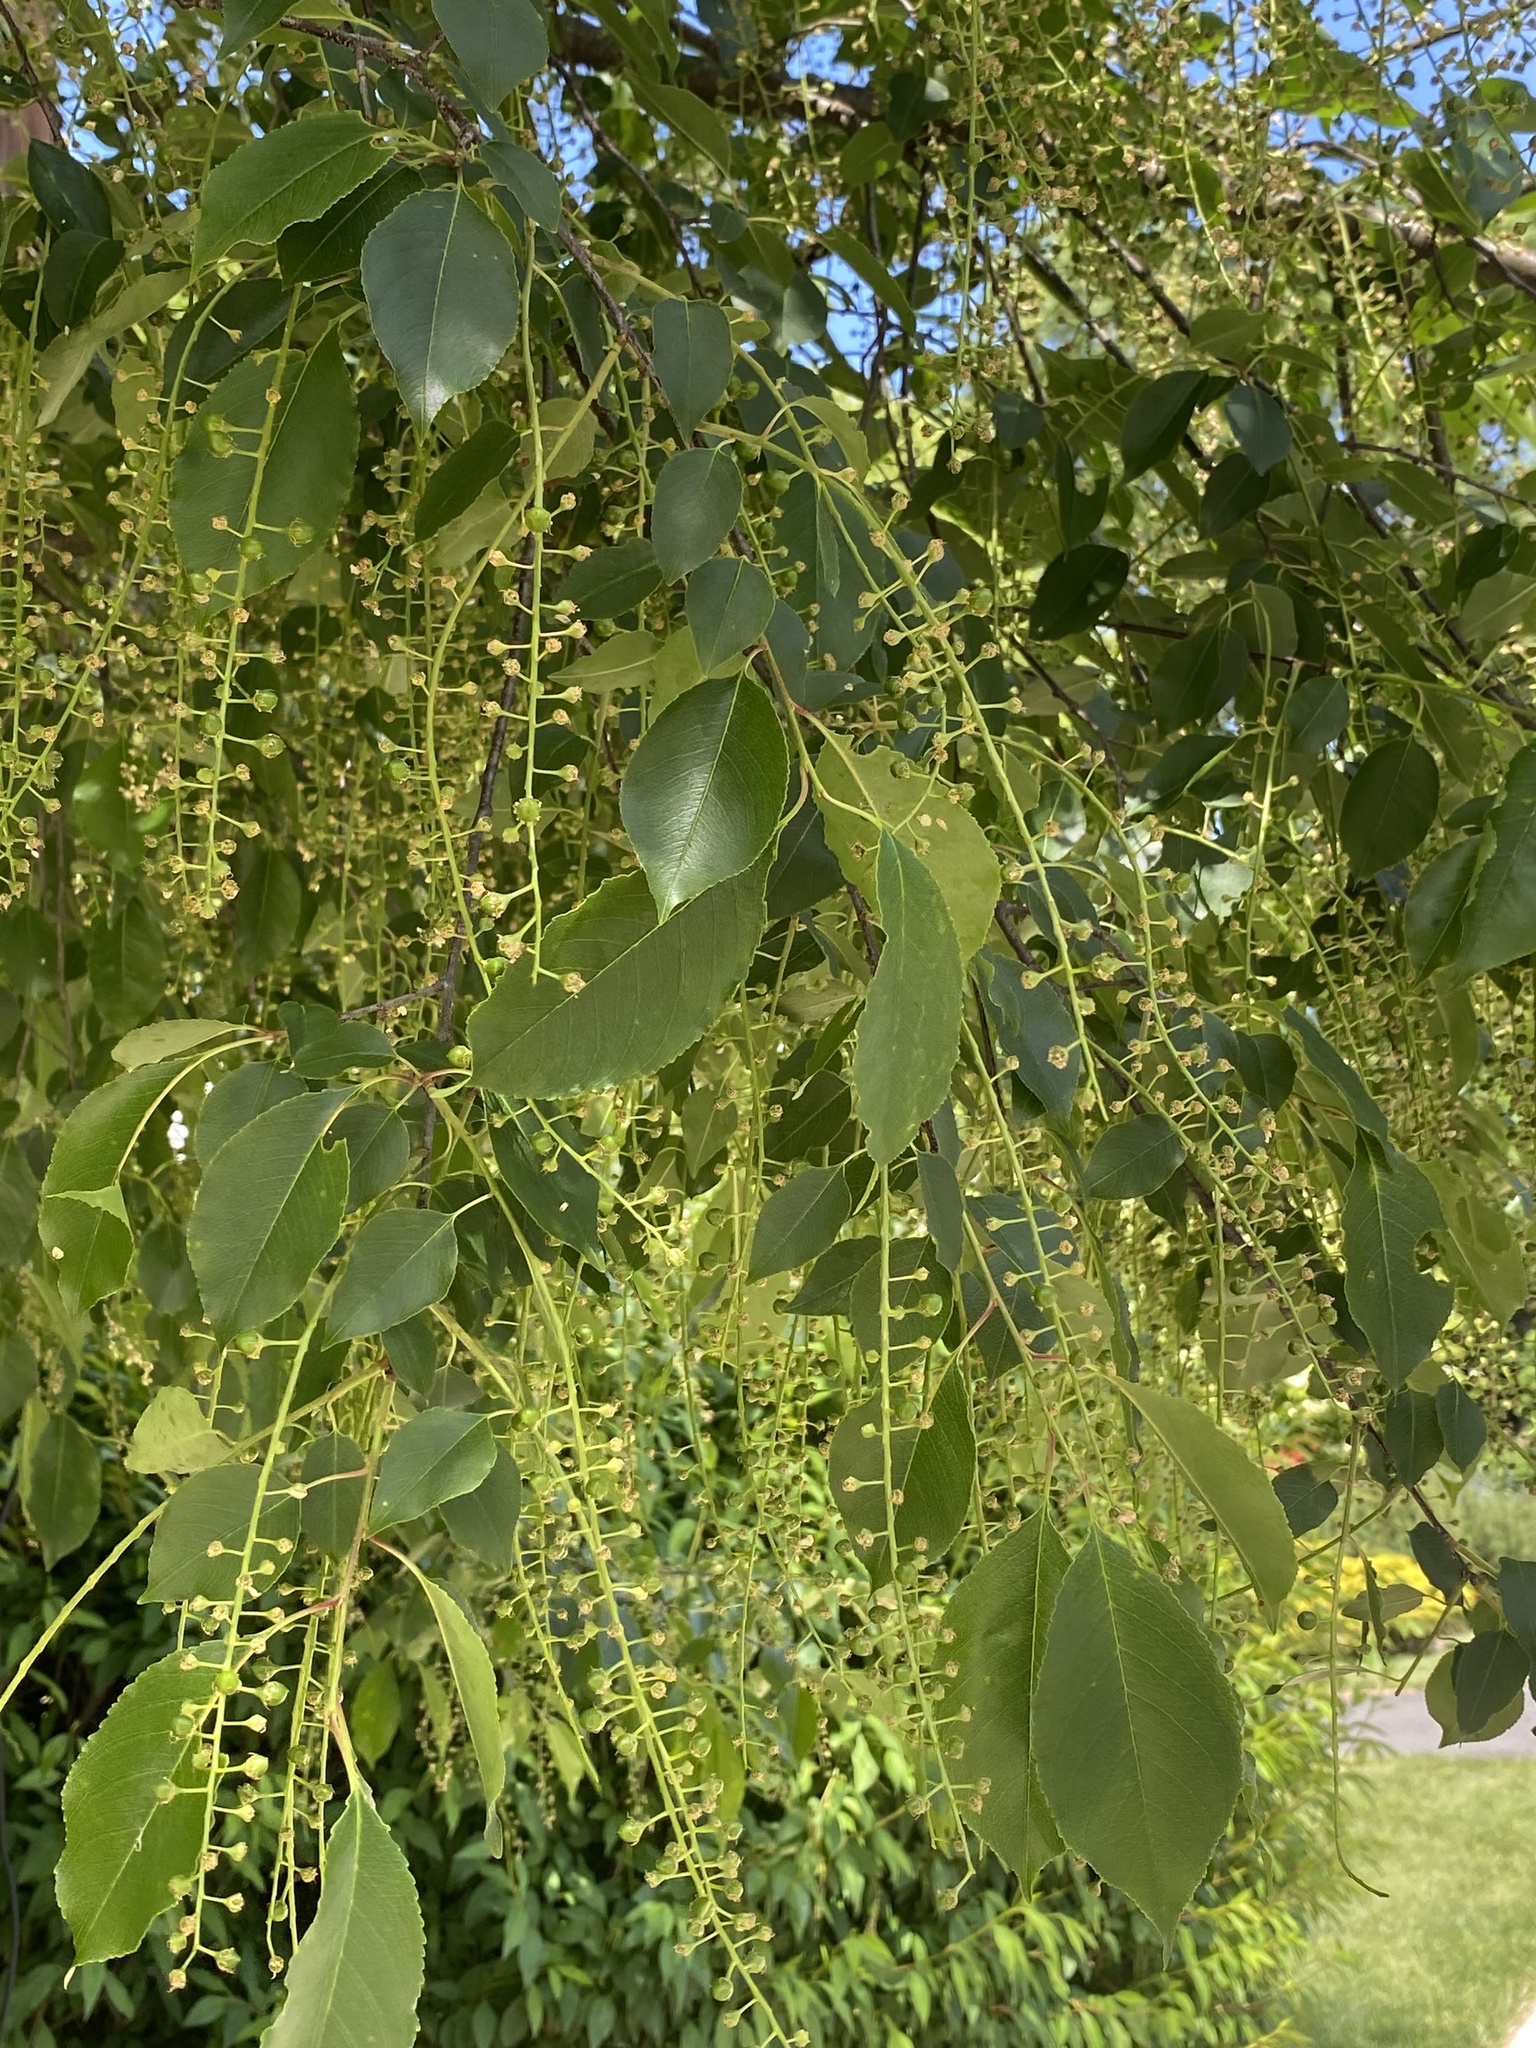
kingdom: Plantae
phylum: Tracheophyta
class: Magnoliopsida
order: Rosales
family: Rosaceae
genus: Prunus
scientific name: Prunus serotina
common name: Black cherry
